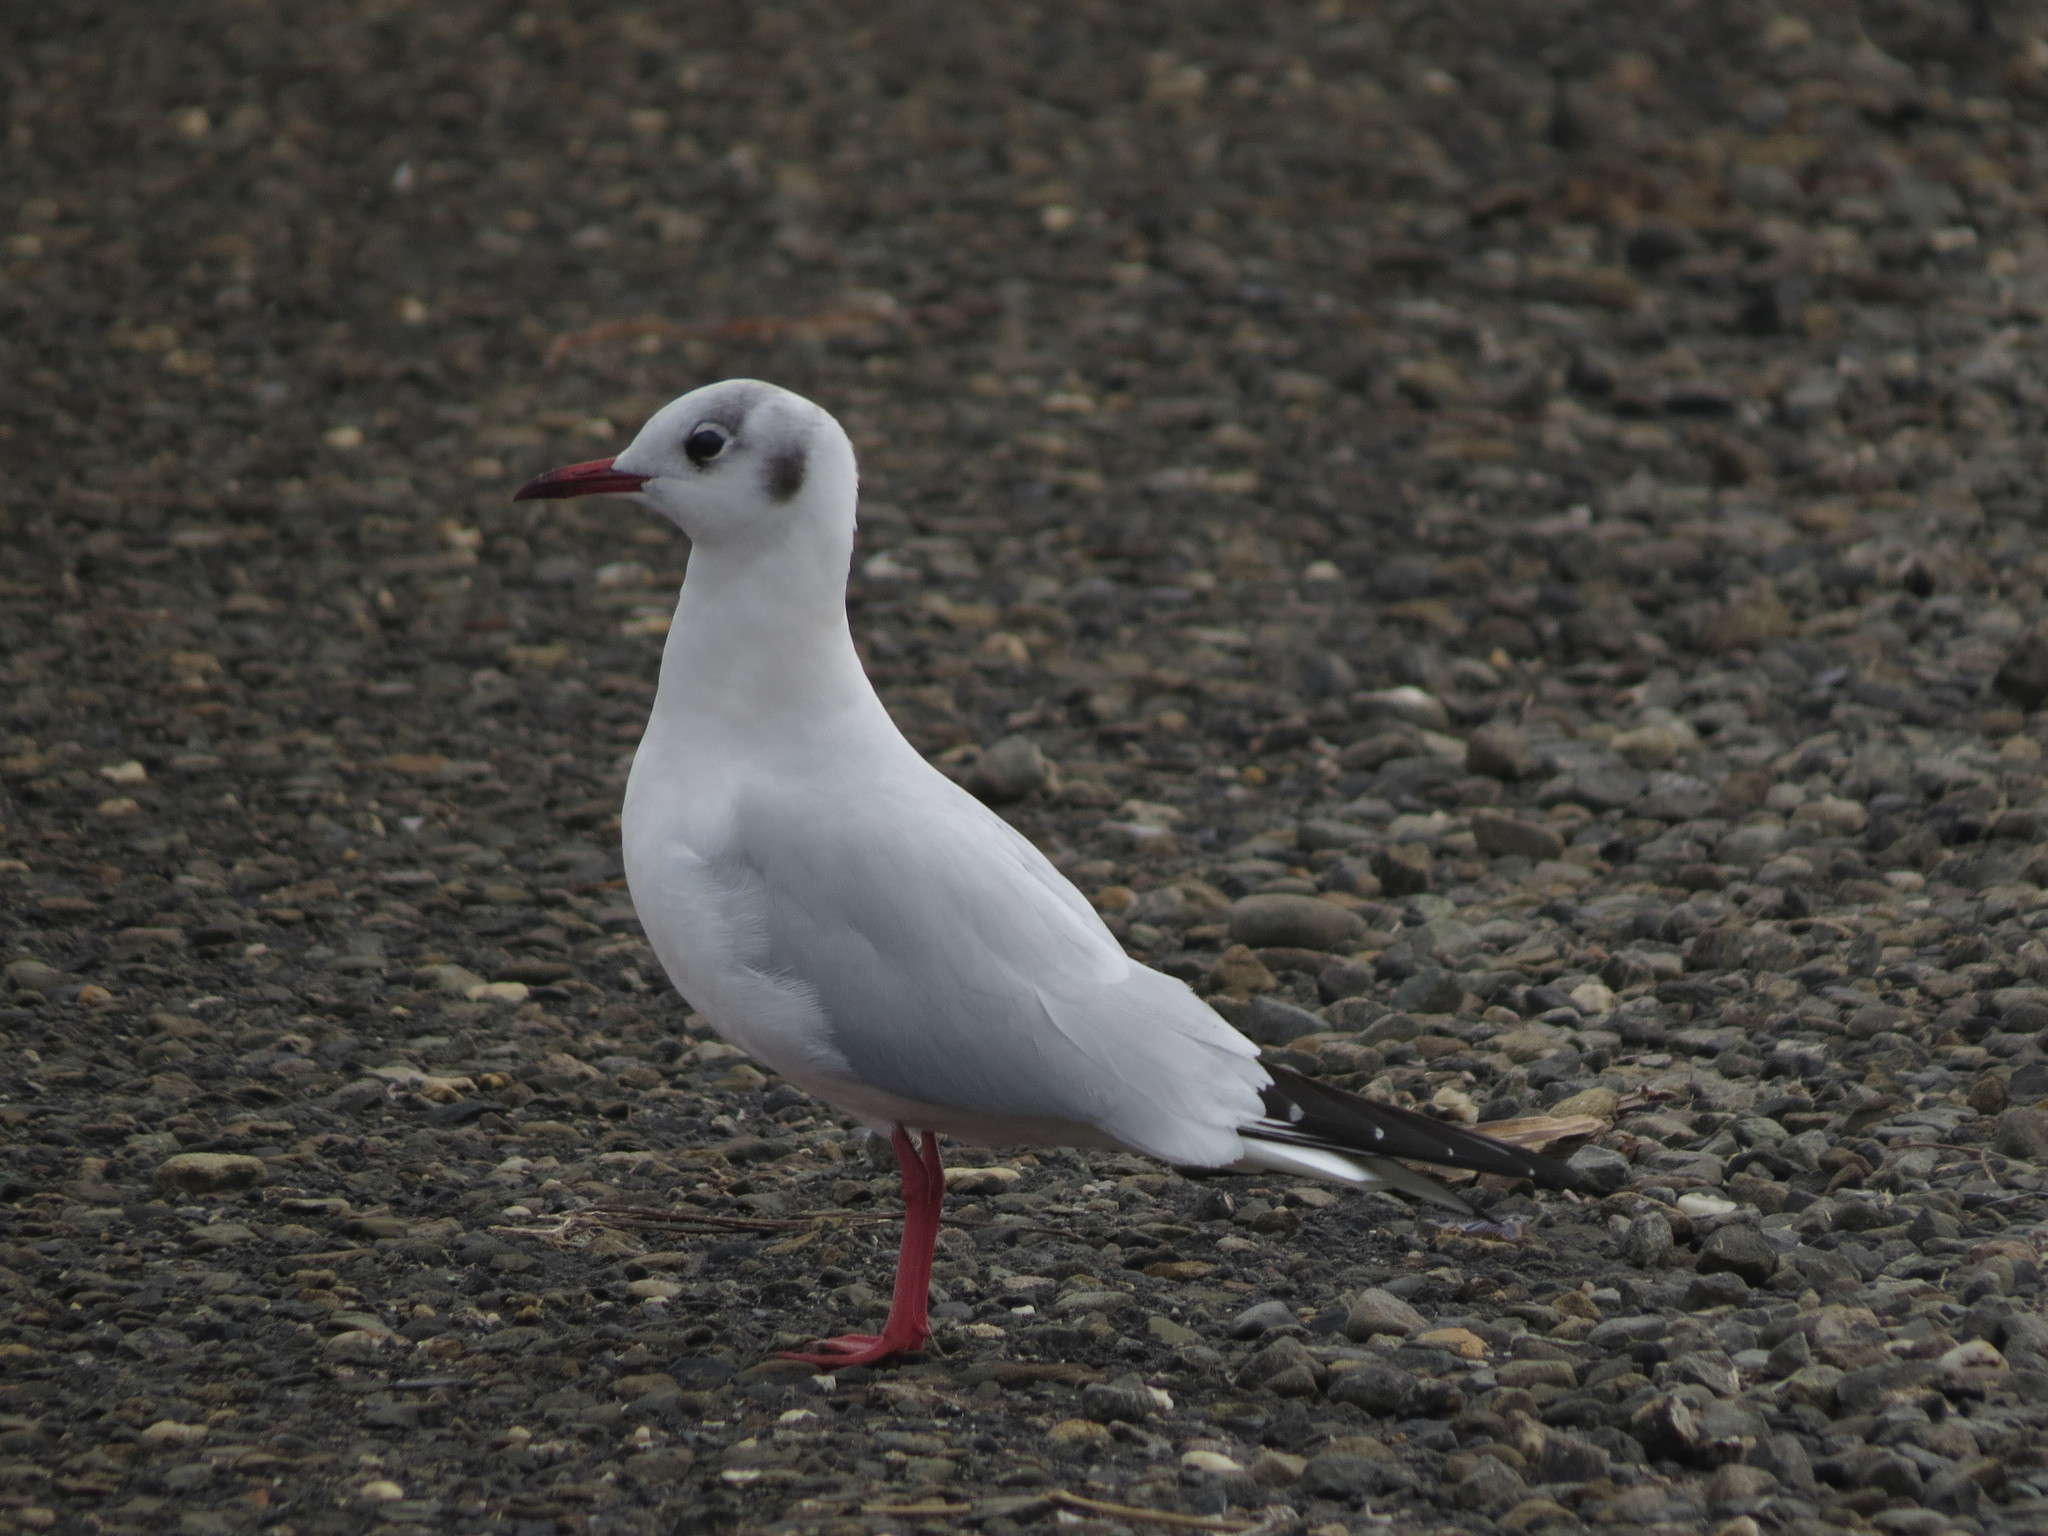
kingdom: Animalia
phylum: Chordata
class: Aves
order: Charadriiformes
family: Laridae
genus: Chroicocephalus
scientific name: Chroicocephalus ridibundus
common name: Black-headed gull
